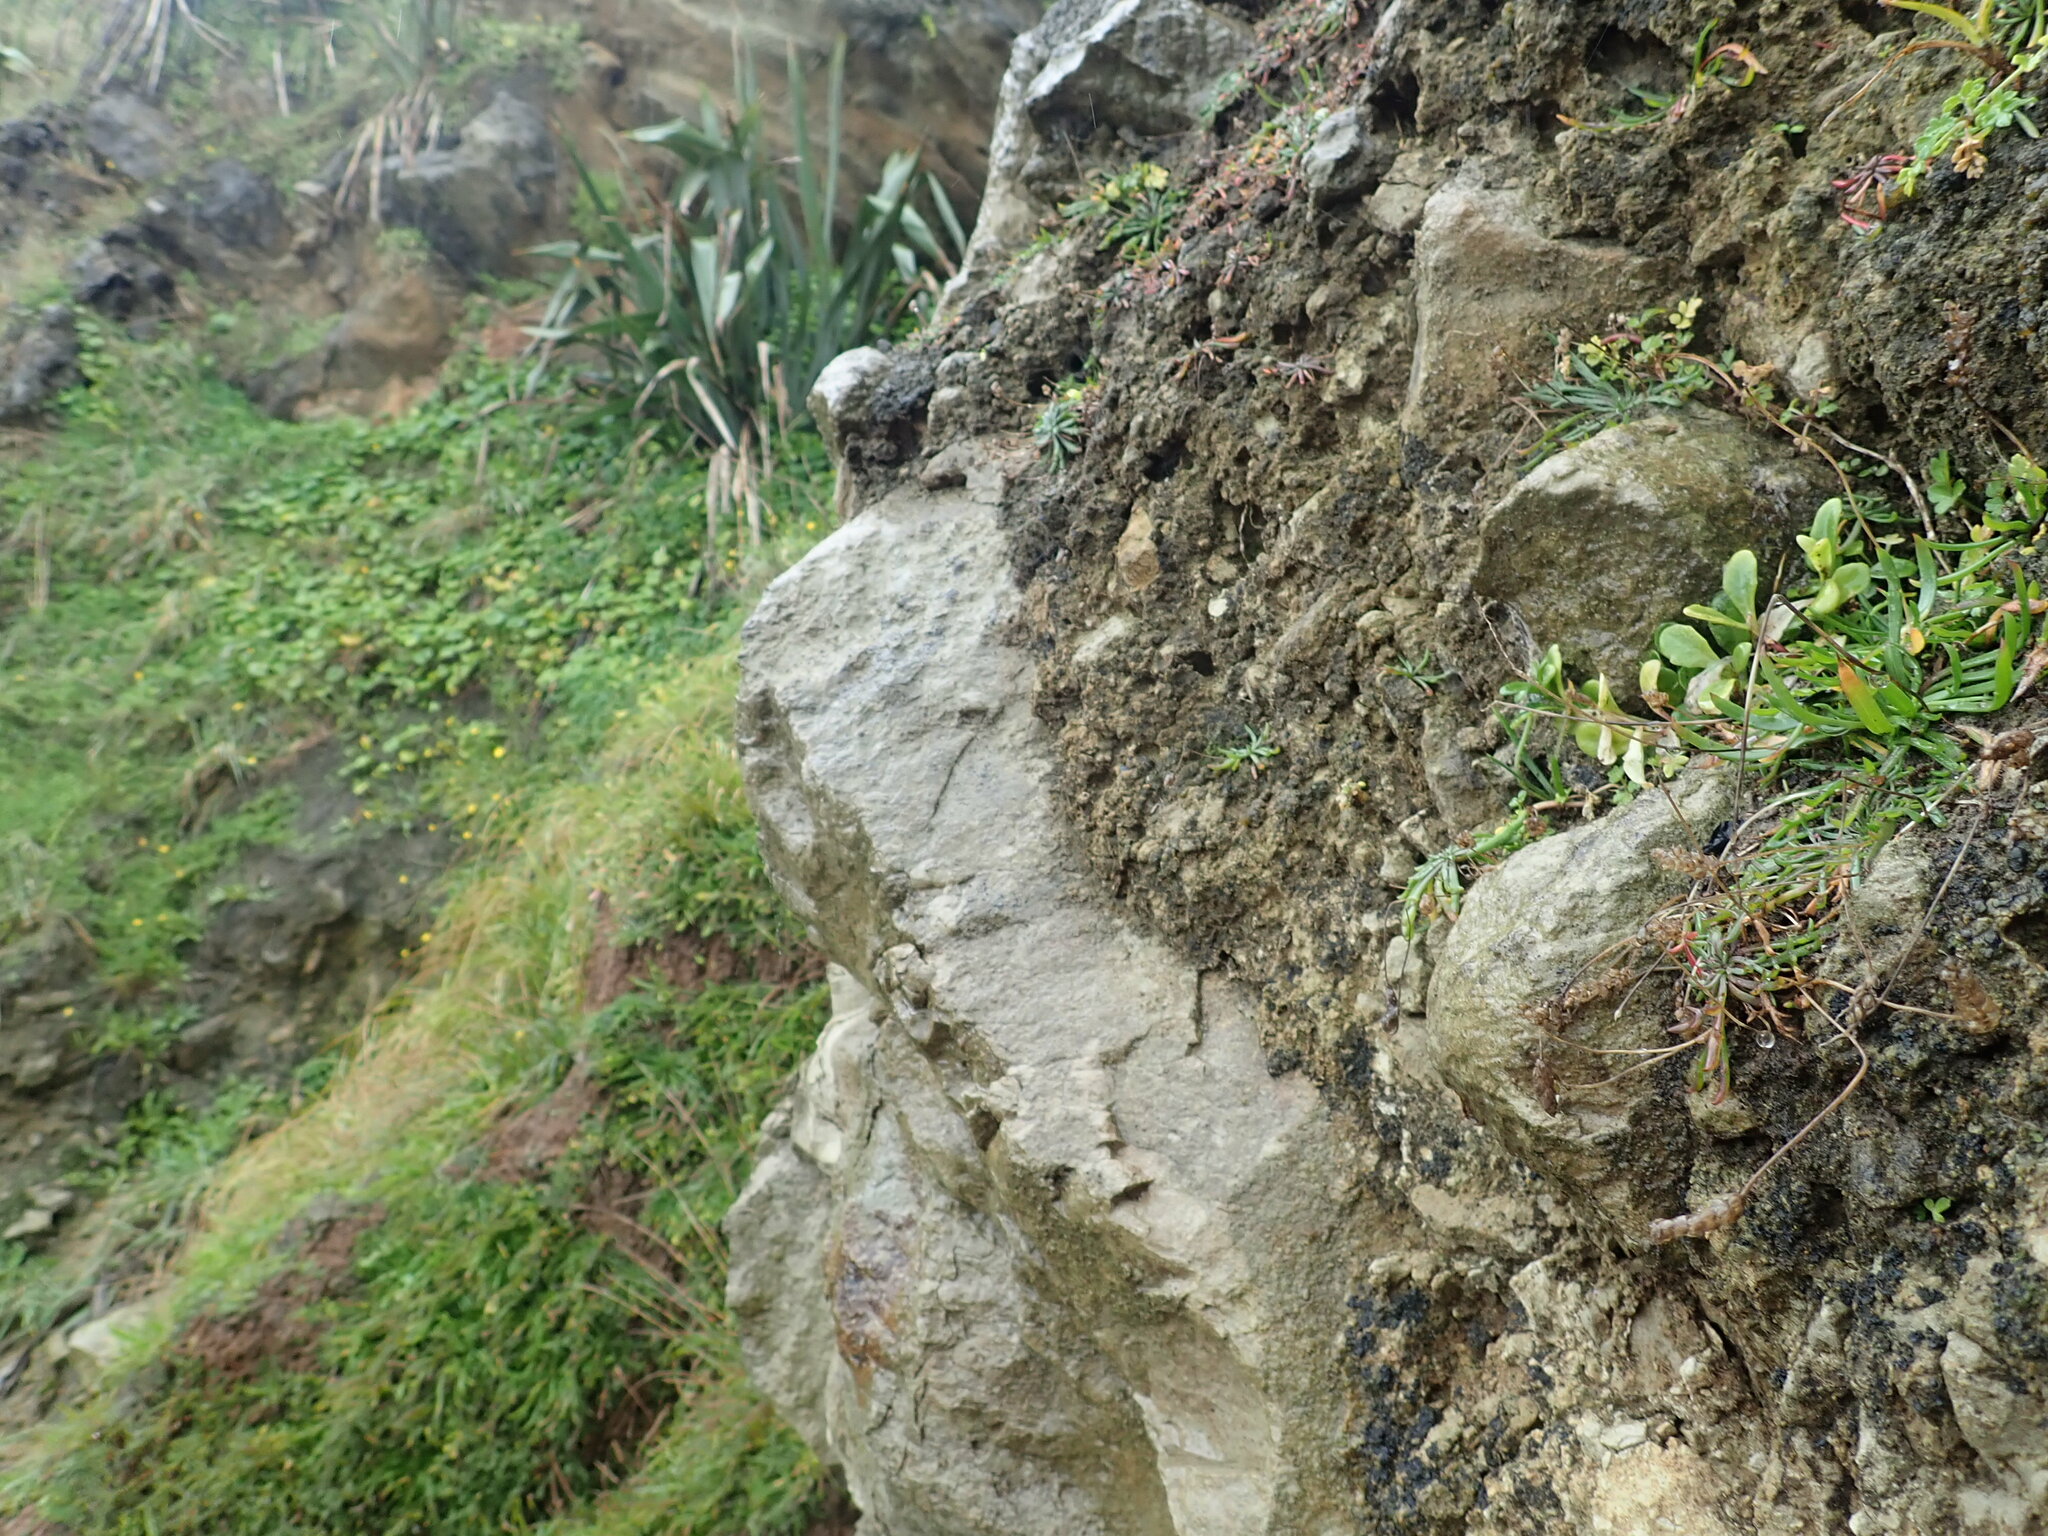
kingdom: Plantae
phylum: Tracheophyta
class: Magnoliopsida
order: Asterales
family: Campanulaceae
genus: Lobelia
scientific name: Lobelia anceps
